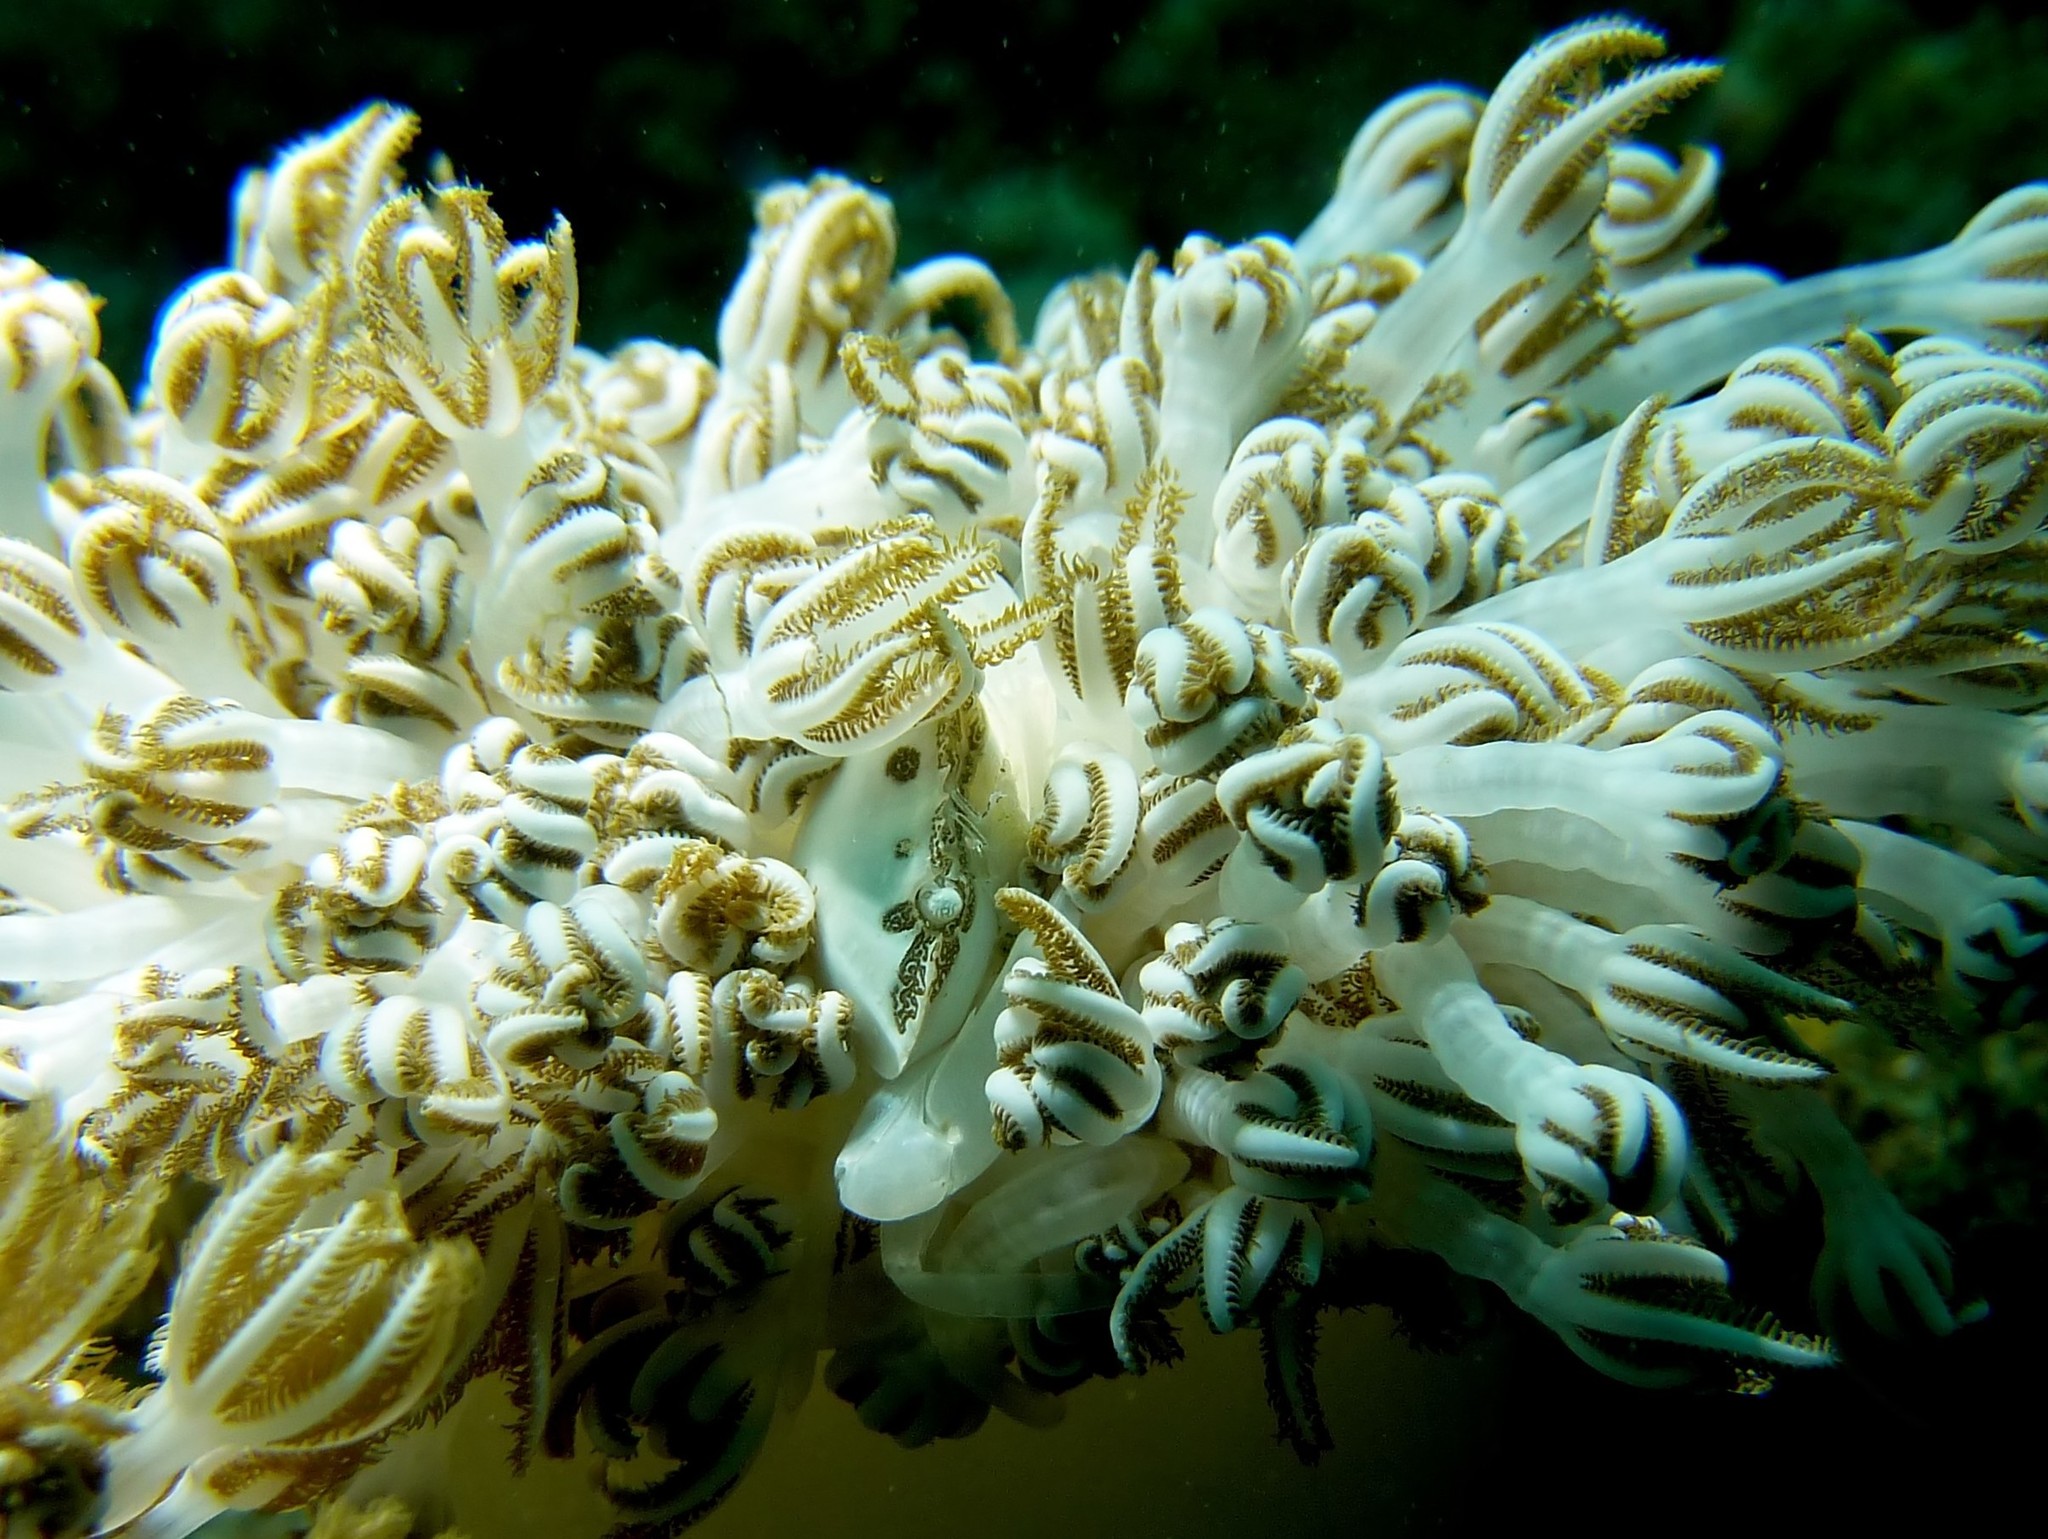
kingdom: Animalia
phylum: Arthropoda
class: Malacostraca
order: Decapoda
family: Portunidae
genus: Caphyra
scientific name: Caphyra loevis
